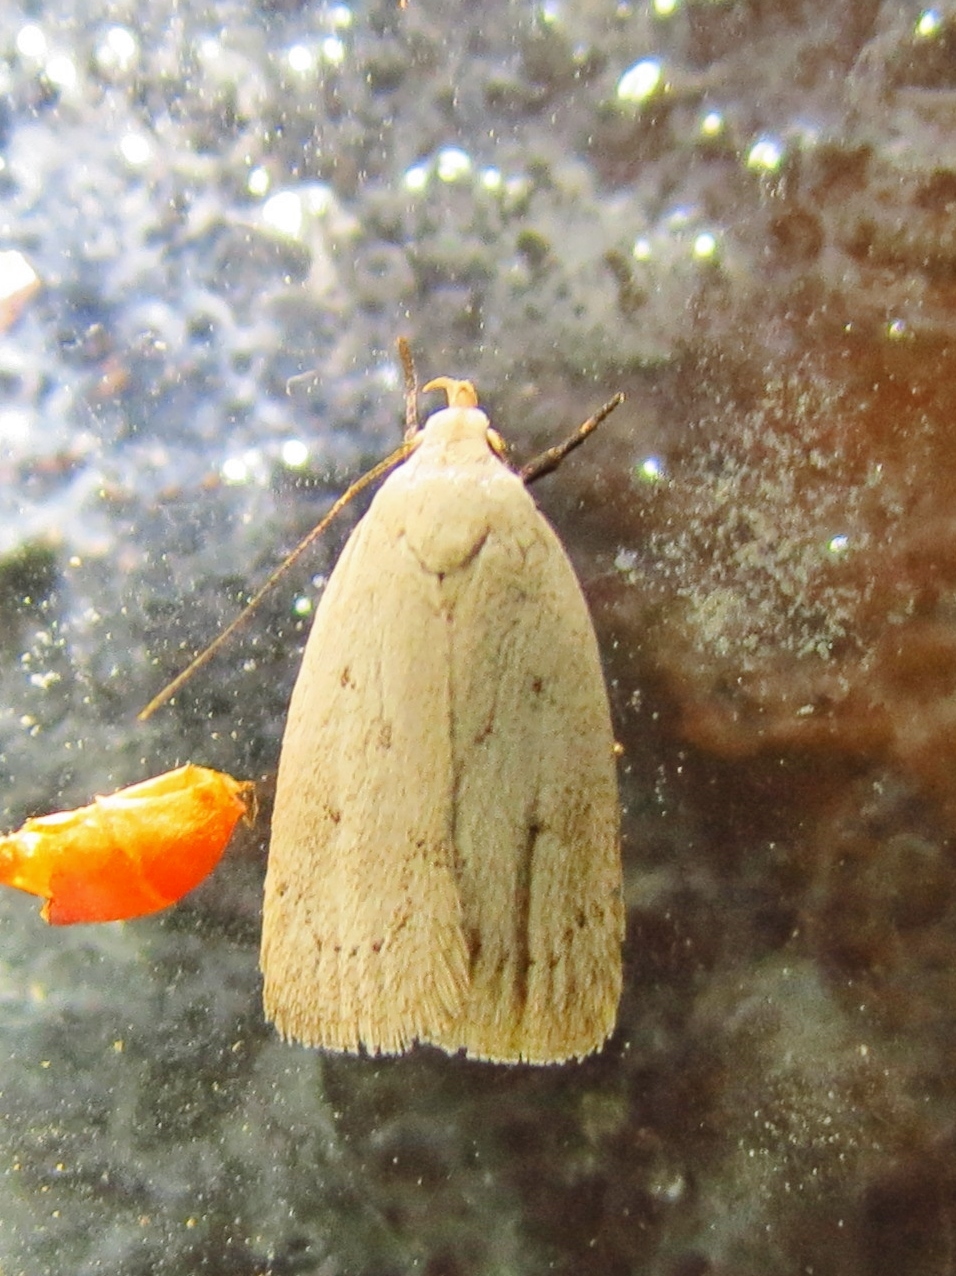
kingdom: Animalia
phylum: Arthropoda
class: Insecta
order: Lepidoptera
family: Oecophoridae
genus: Inga
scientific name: Inga cretacea
